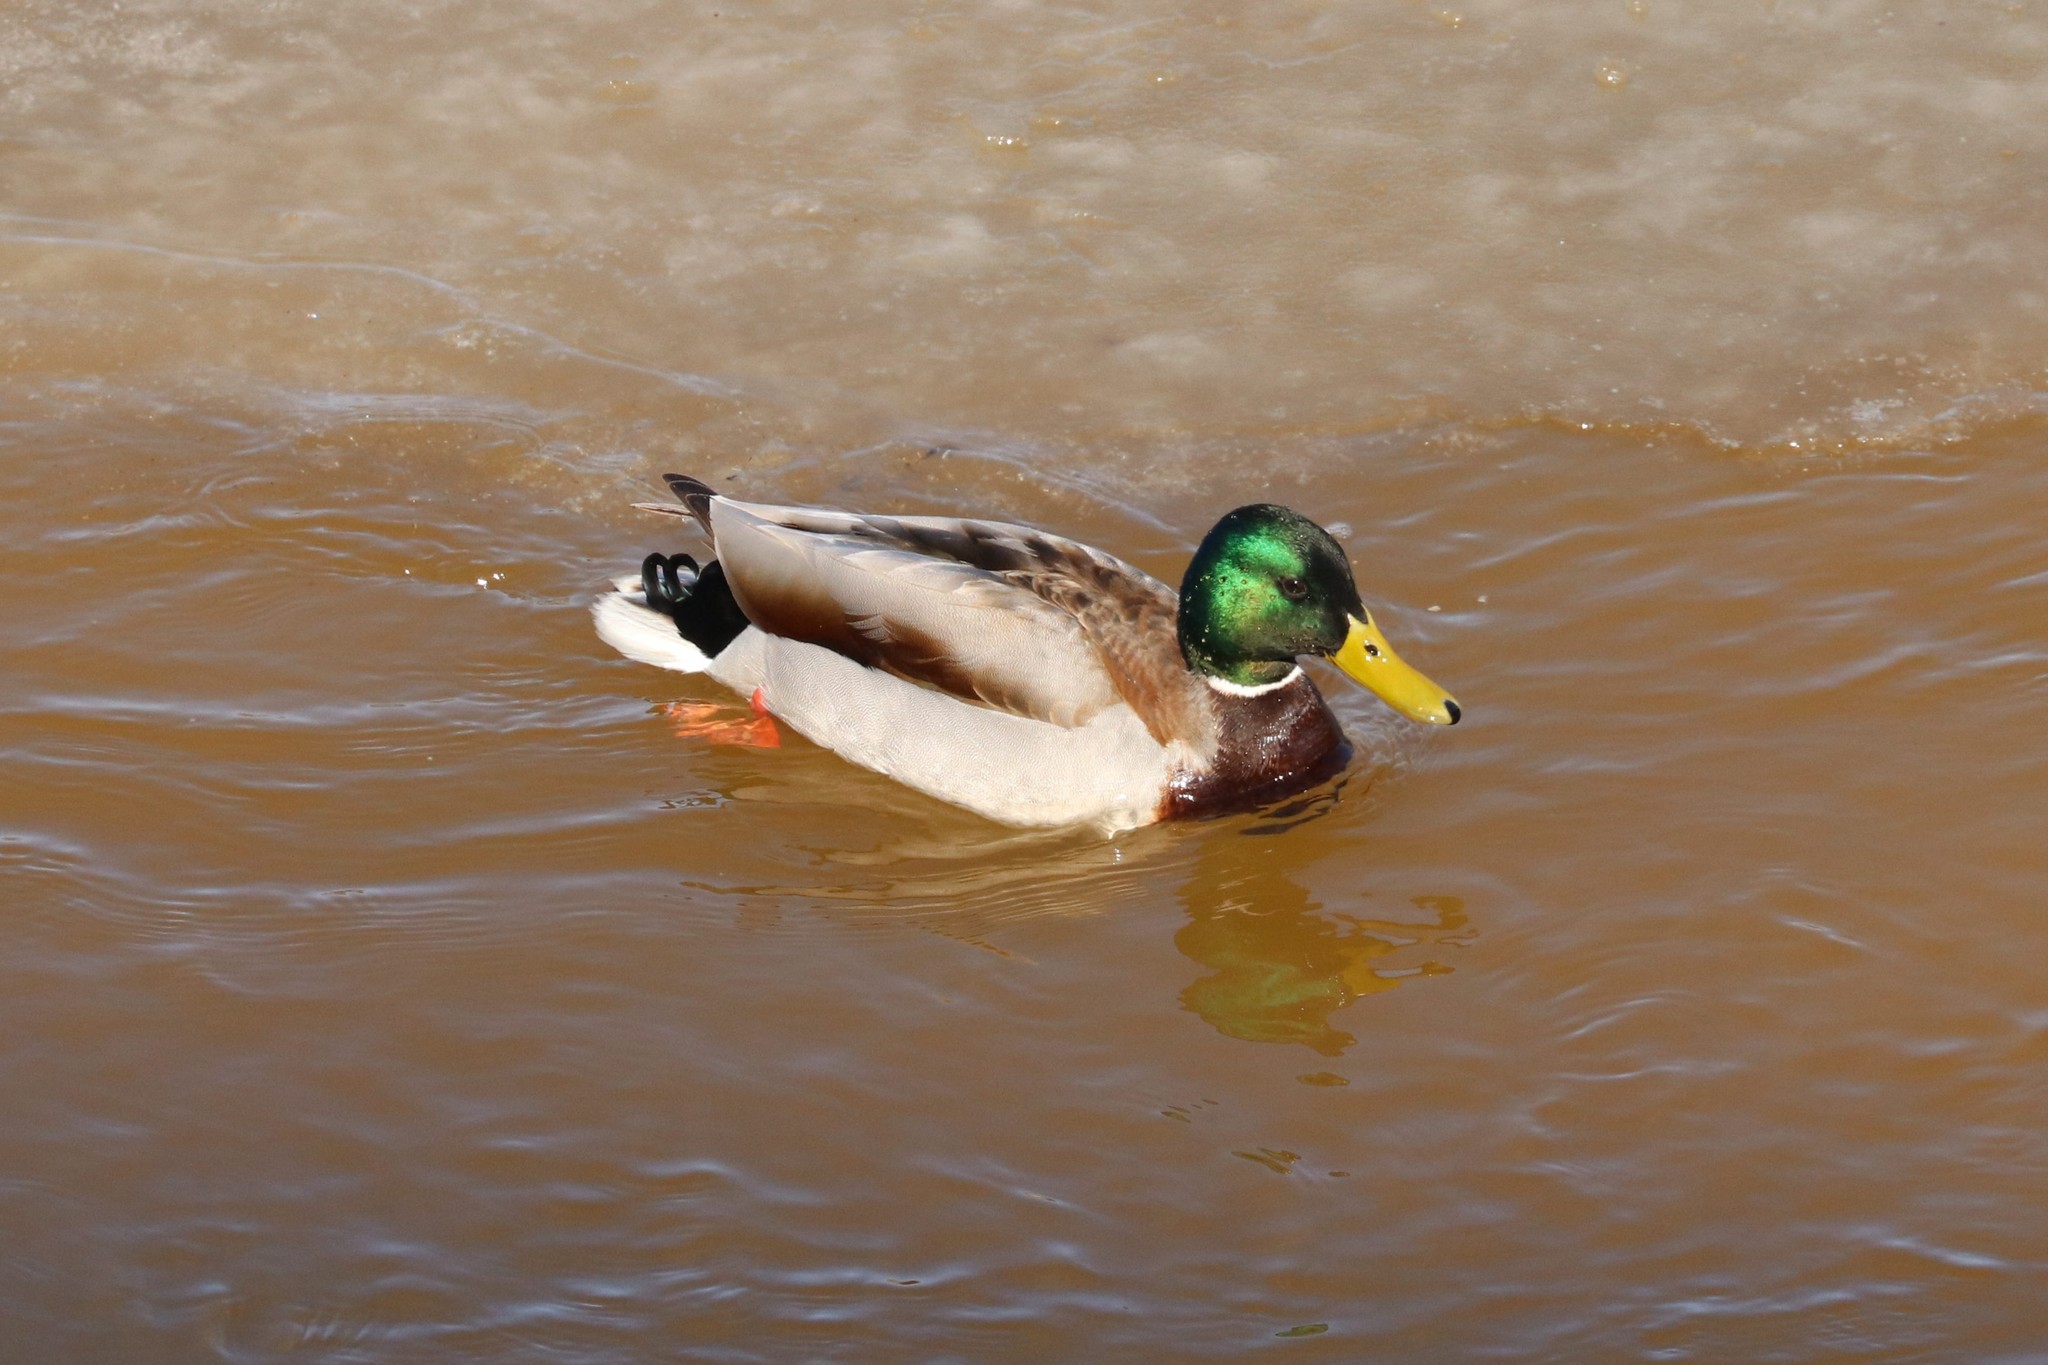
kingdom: Animalia
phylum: Chordata
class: Aves
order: Anseriformes
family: Anatidae
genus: Anas
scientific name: Anas platyrhynchos
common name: Mallard
